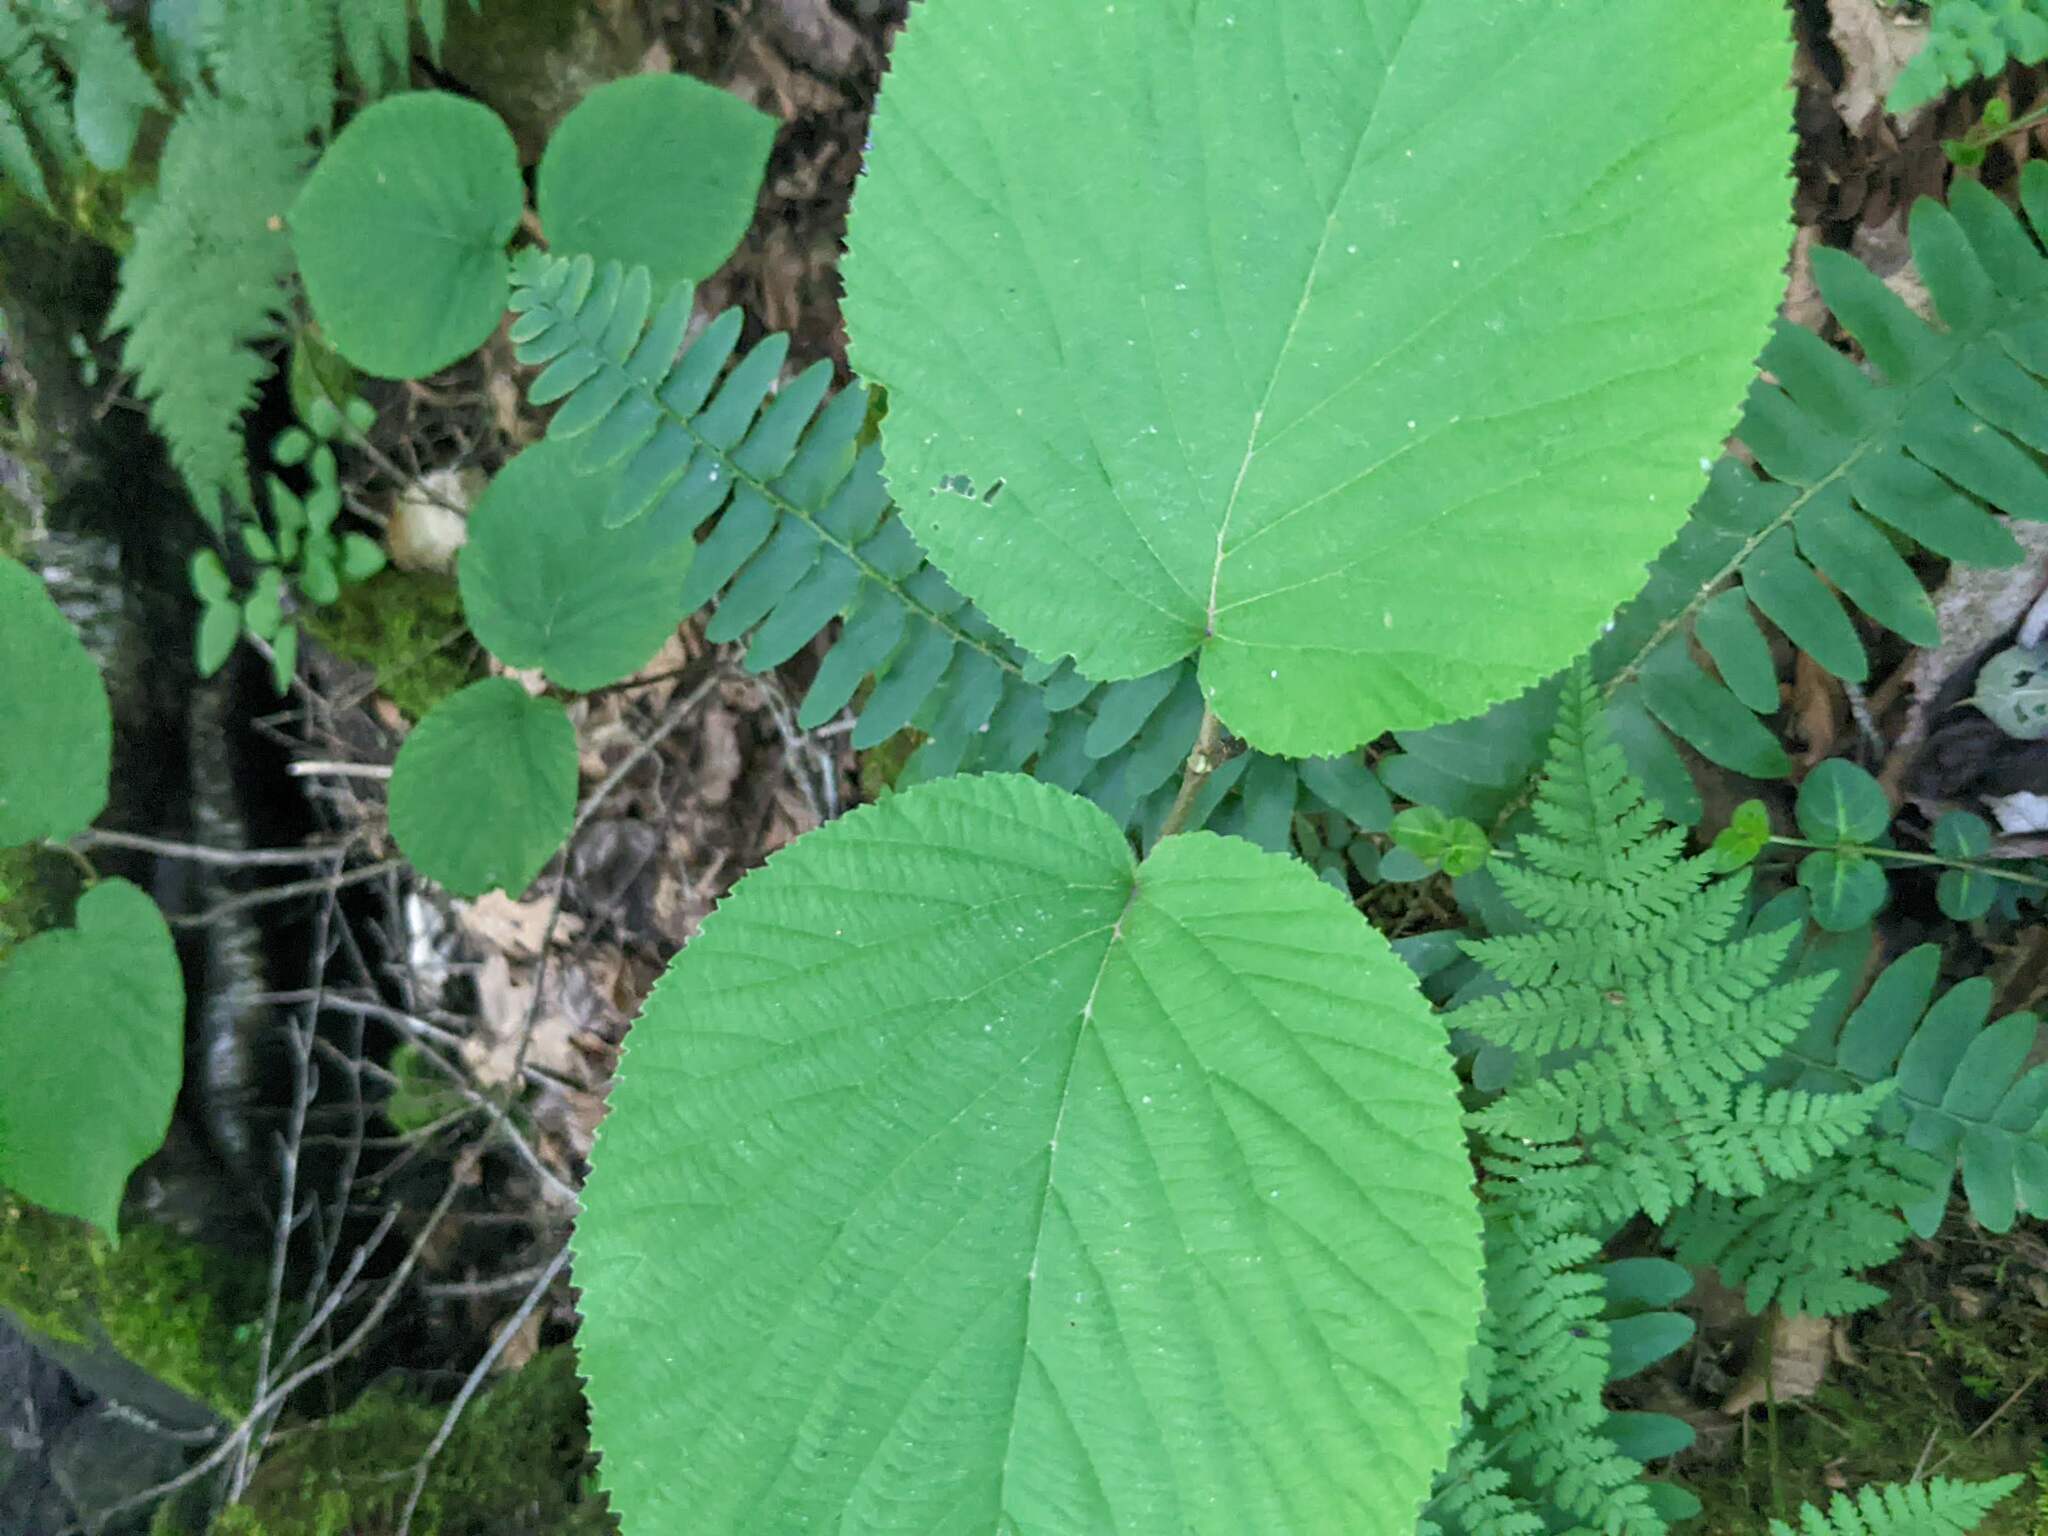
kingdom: Plantae
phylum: Tracheophyta
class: Magnoliopsida
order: Dipsacales
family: Viburnaceae
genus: Viburnum
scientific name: Viburnum lantanoides
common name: Hobblebush
